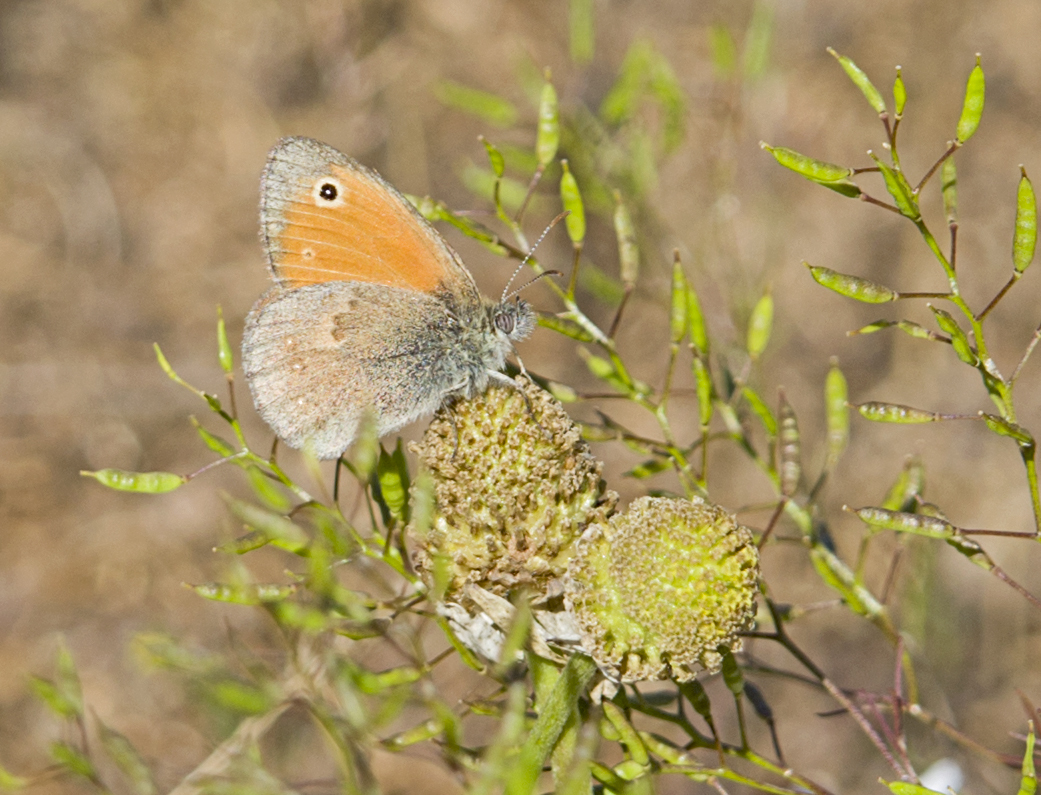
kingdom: Animalia
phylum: Arthropoda
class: Insecta
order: Lepidoptera
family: Nymphalidae
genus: Coenonympha
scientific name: Coenonympha pamphilus
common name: Small heath
